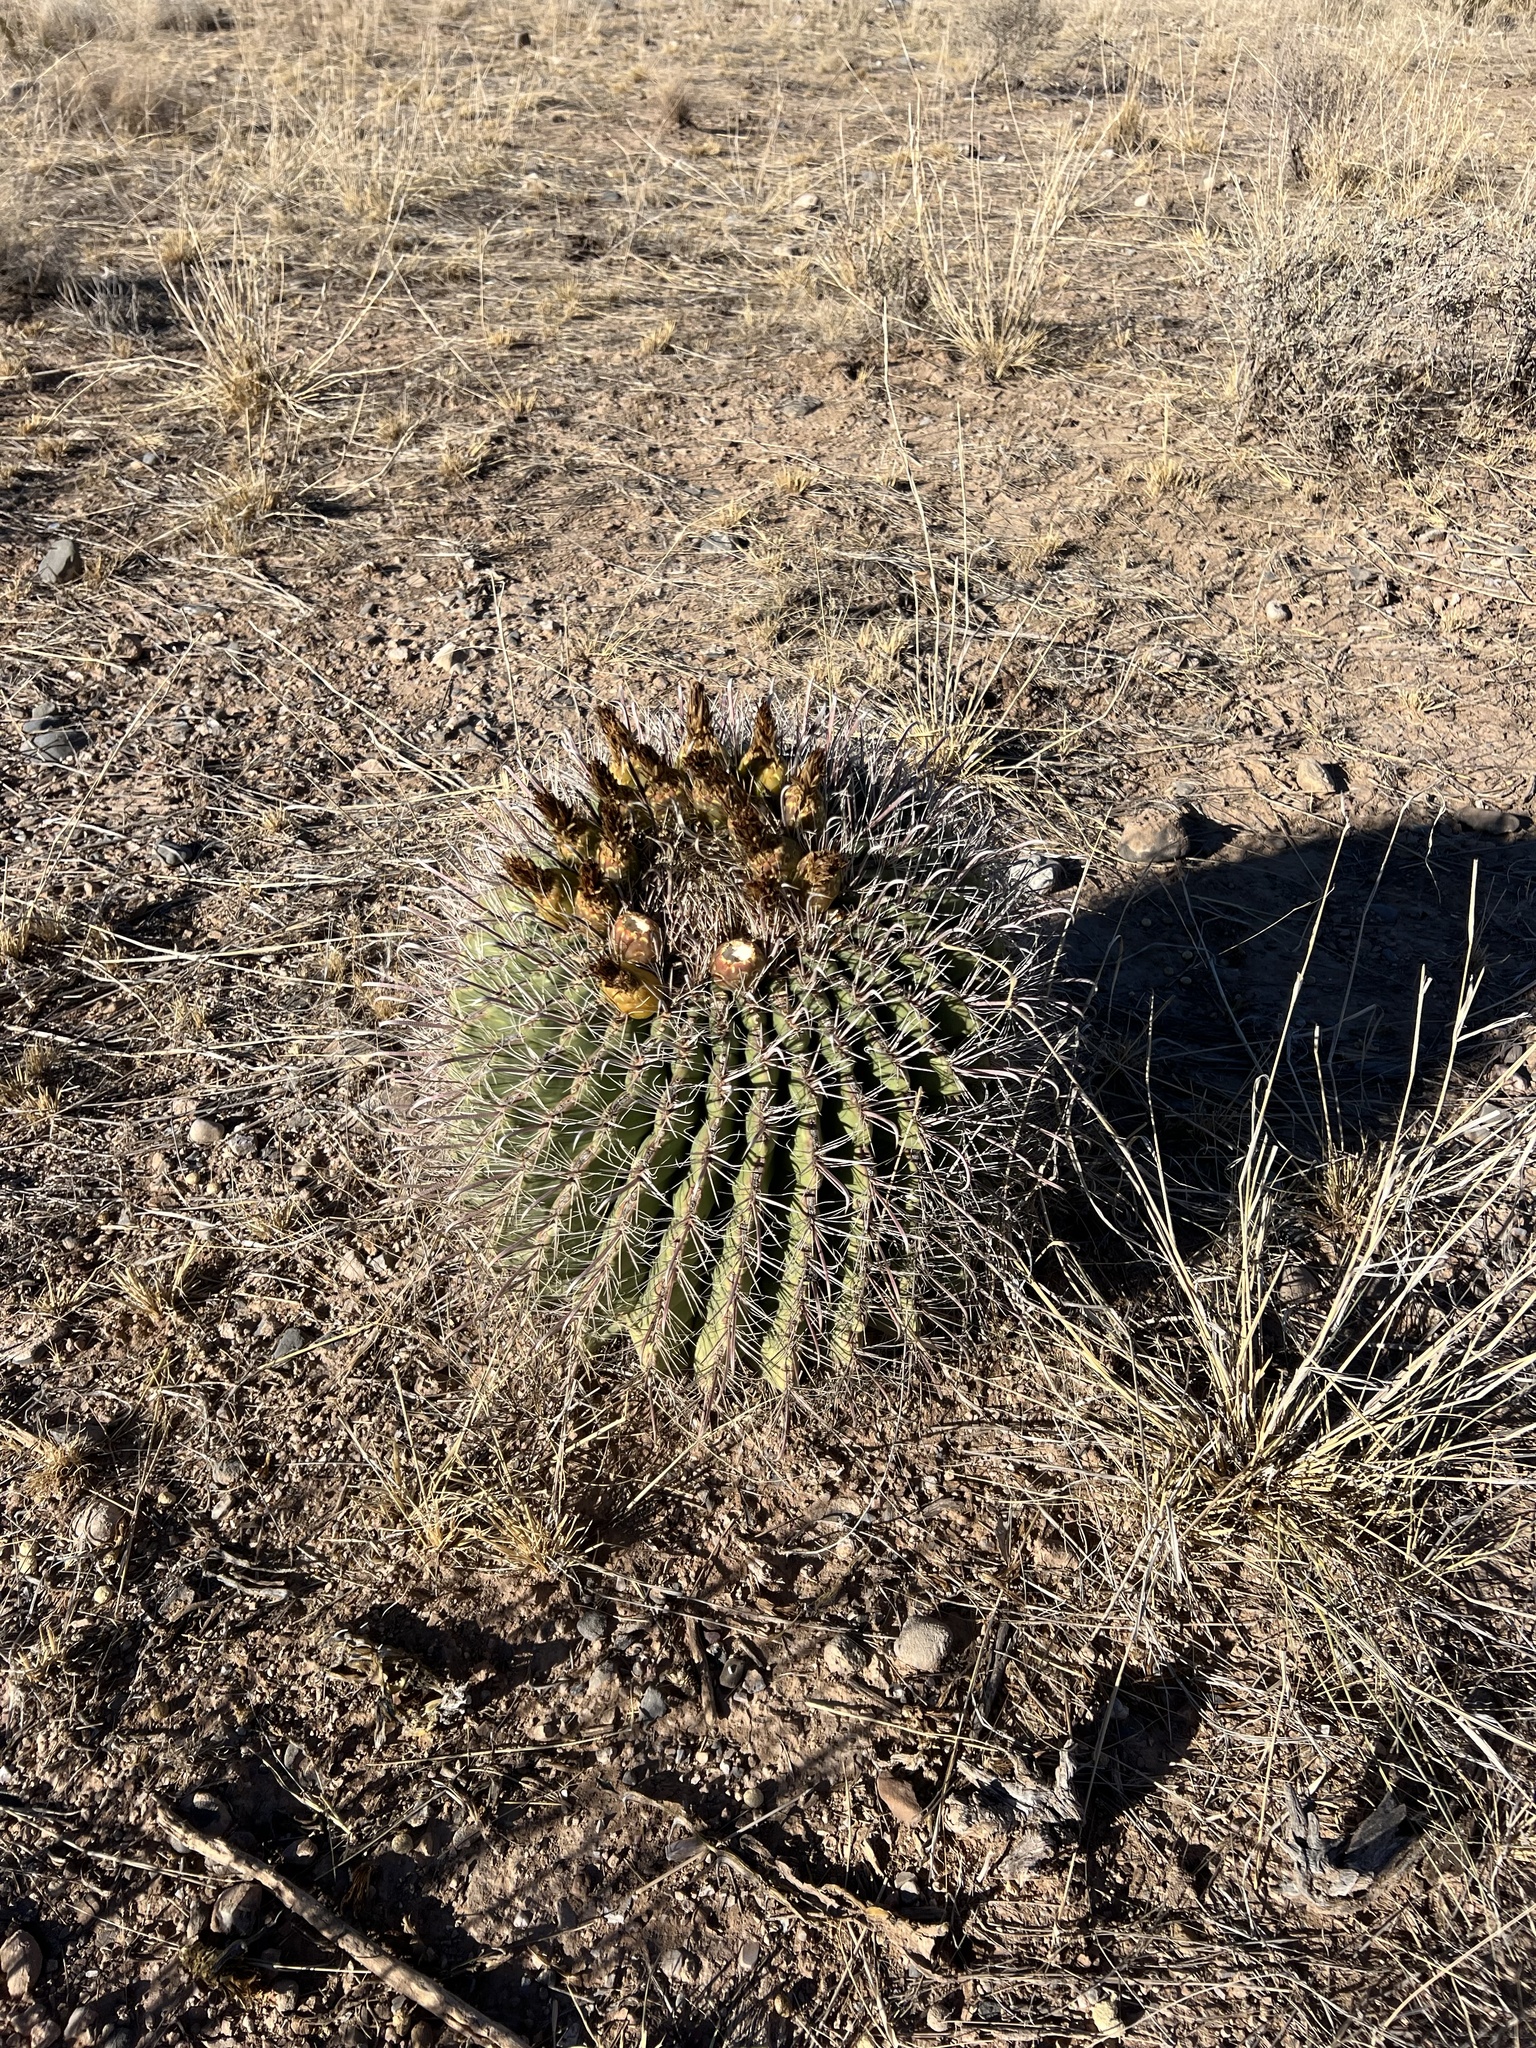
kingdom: Plantae
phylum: Tracheophyta
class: Magnoliopsida
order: Caryophyllales
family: Cactaceae
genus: Ferocactus
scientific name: Ferocactus wislizeni
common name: Candy barrel cactus
